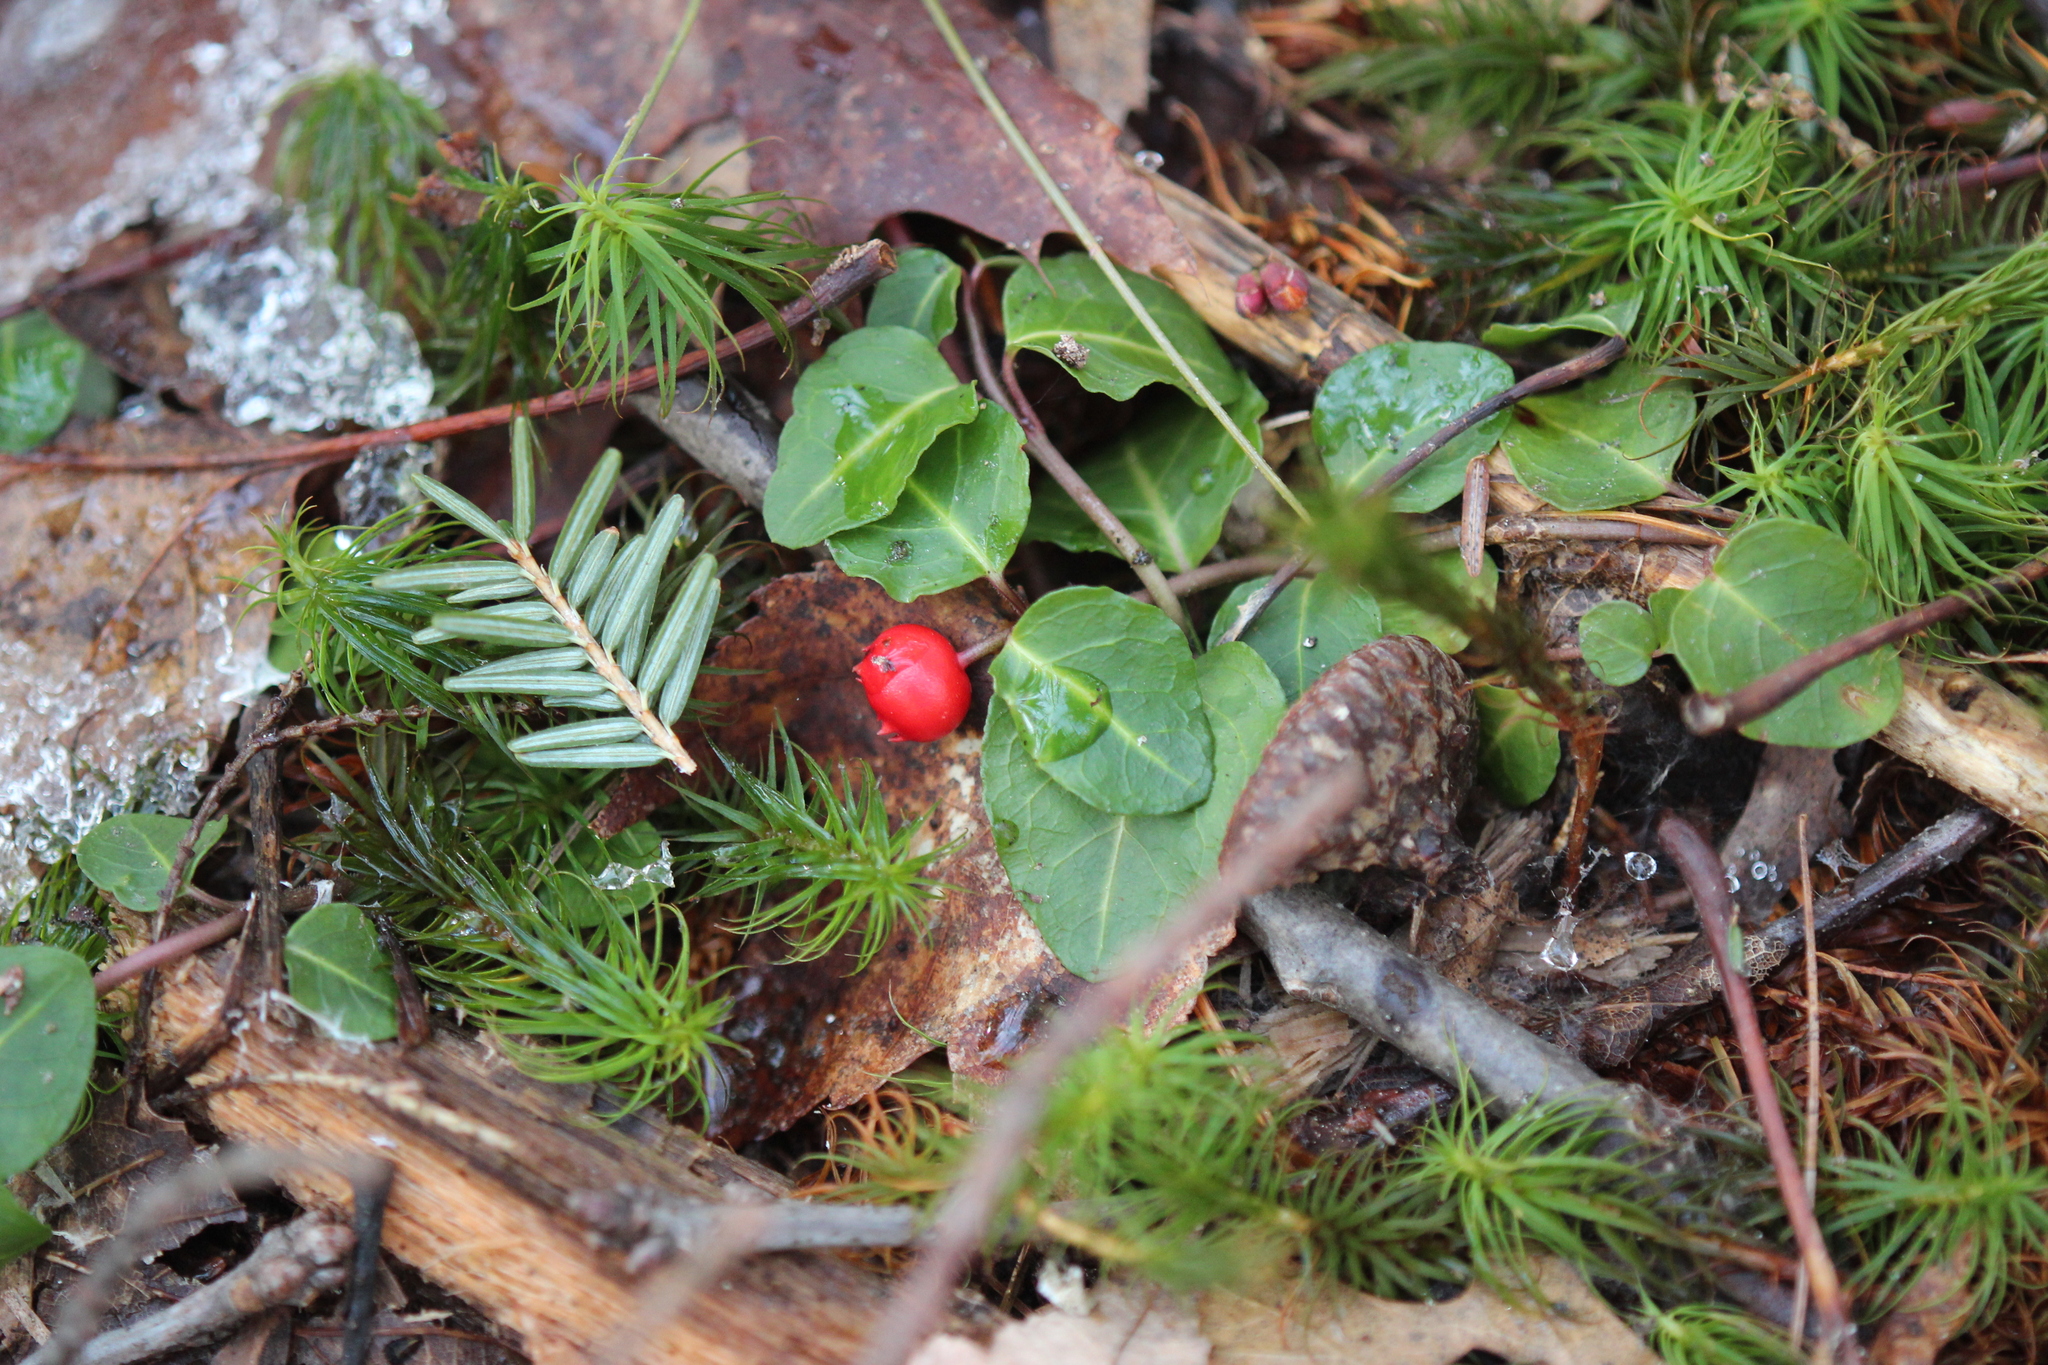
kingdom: Plantae
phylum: Tracheophyta
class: Magnoliopsida
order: Gentianales
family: Rubiaceae
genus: Mitchella
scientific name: Mitchella repens
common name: Partridge-berry
